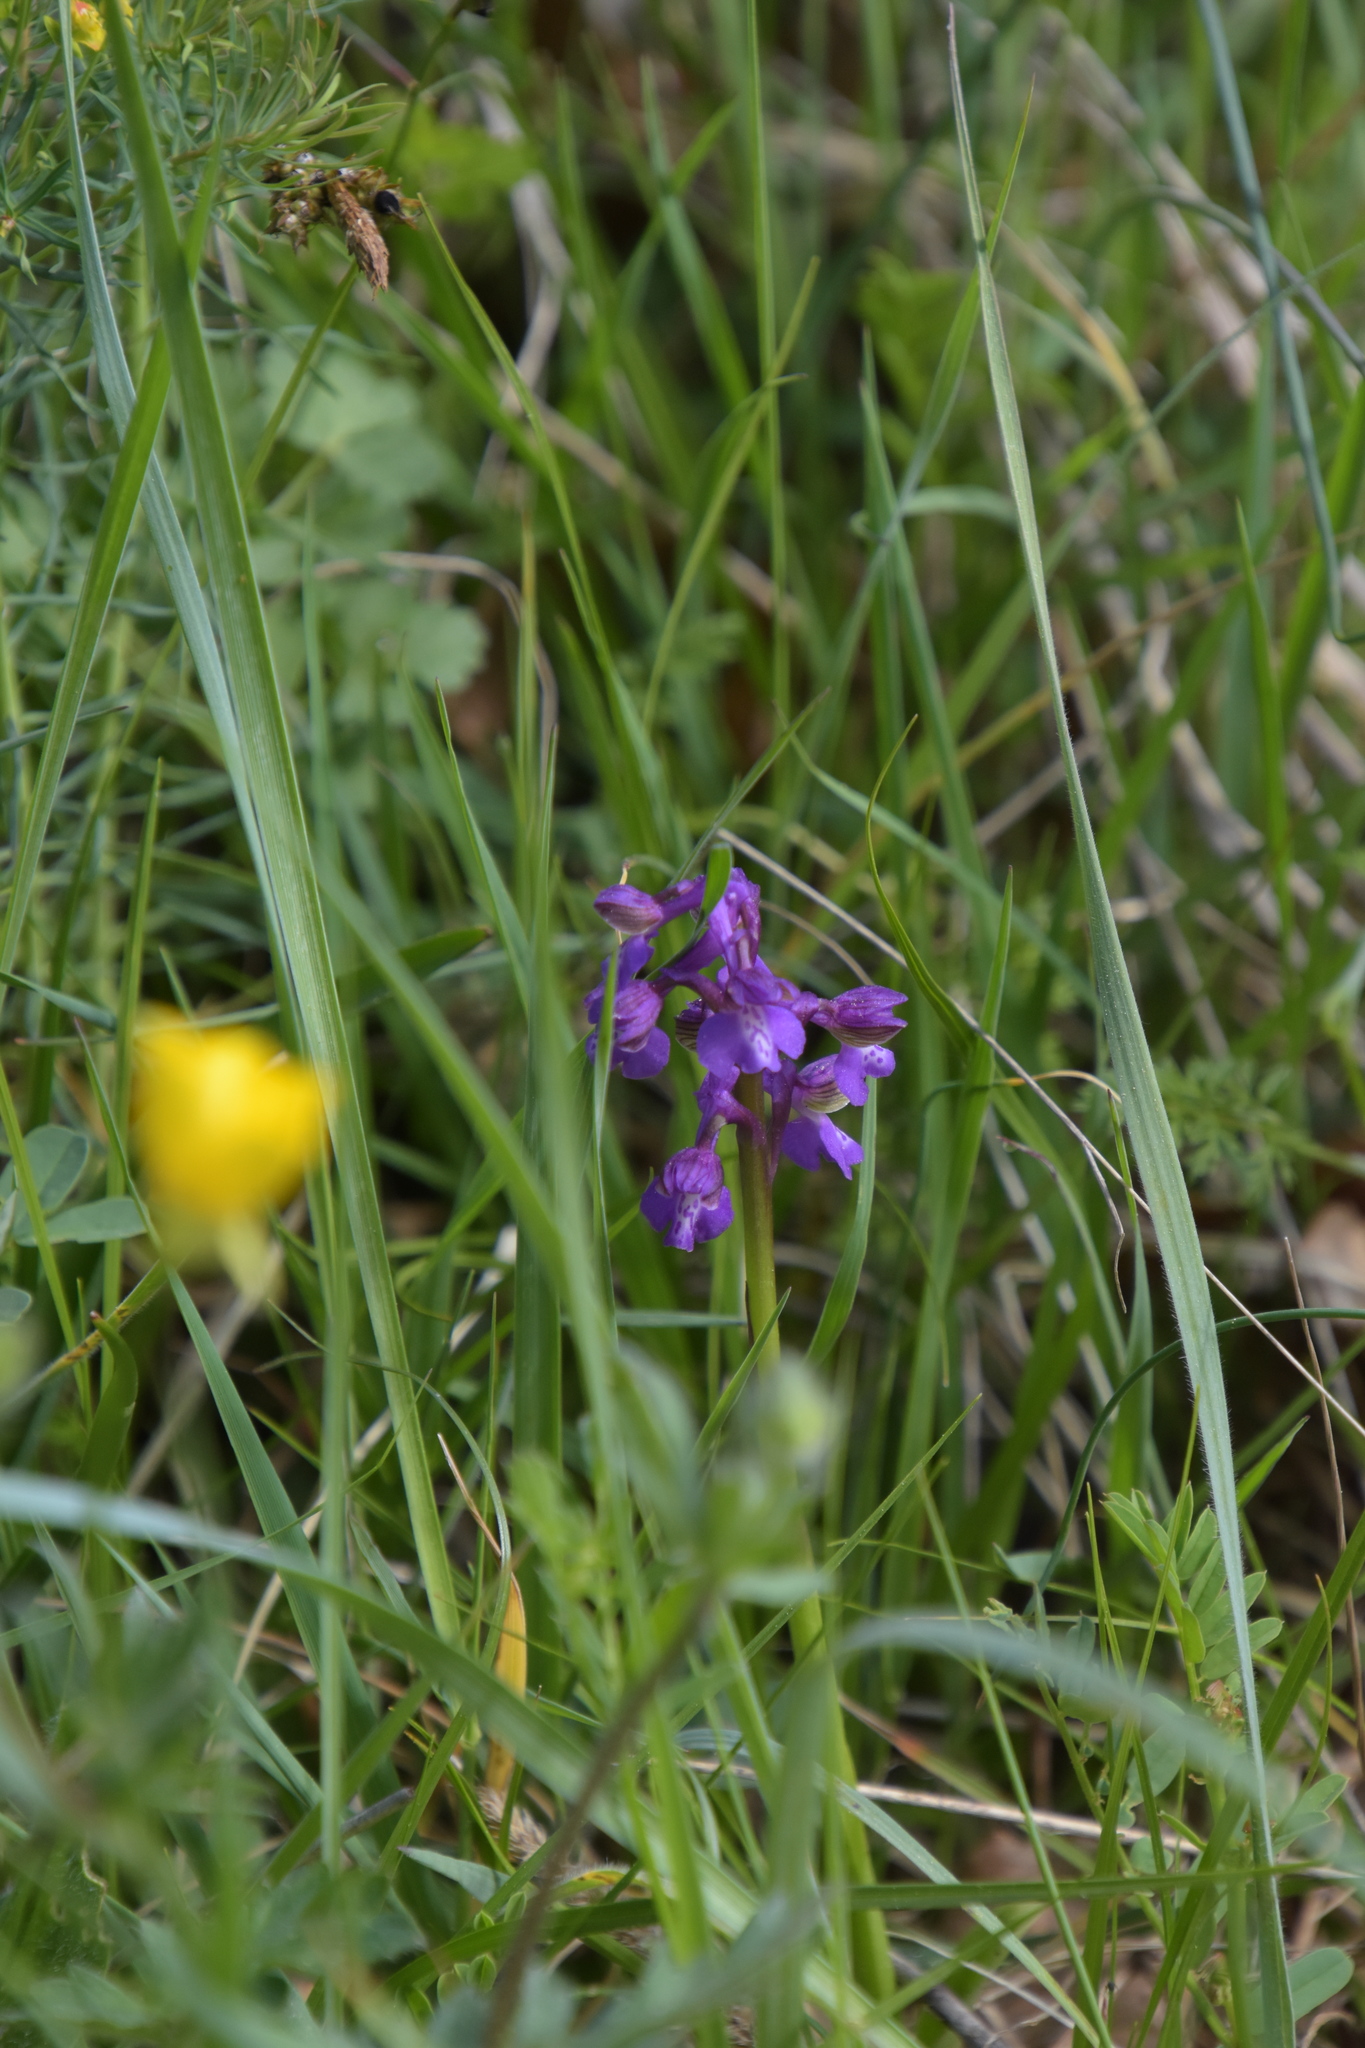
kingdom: Plantae
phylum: Tracheophyta
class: Liliopsida
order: Asparagales
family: Orchidaceae
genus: Anacamptis
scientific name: Anacamptis morio
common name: Green-winged orchid
